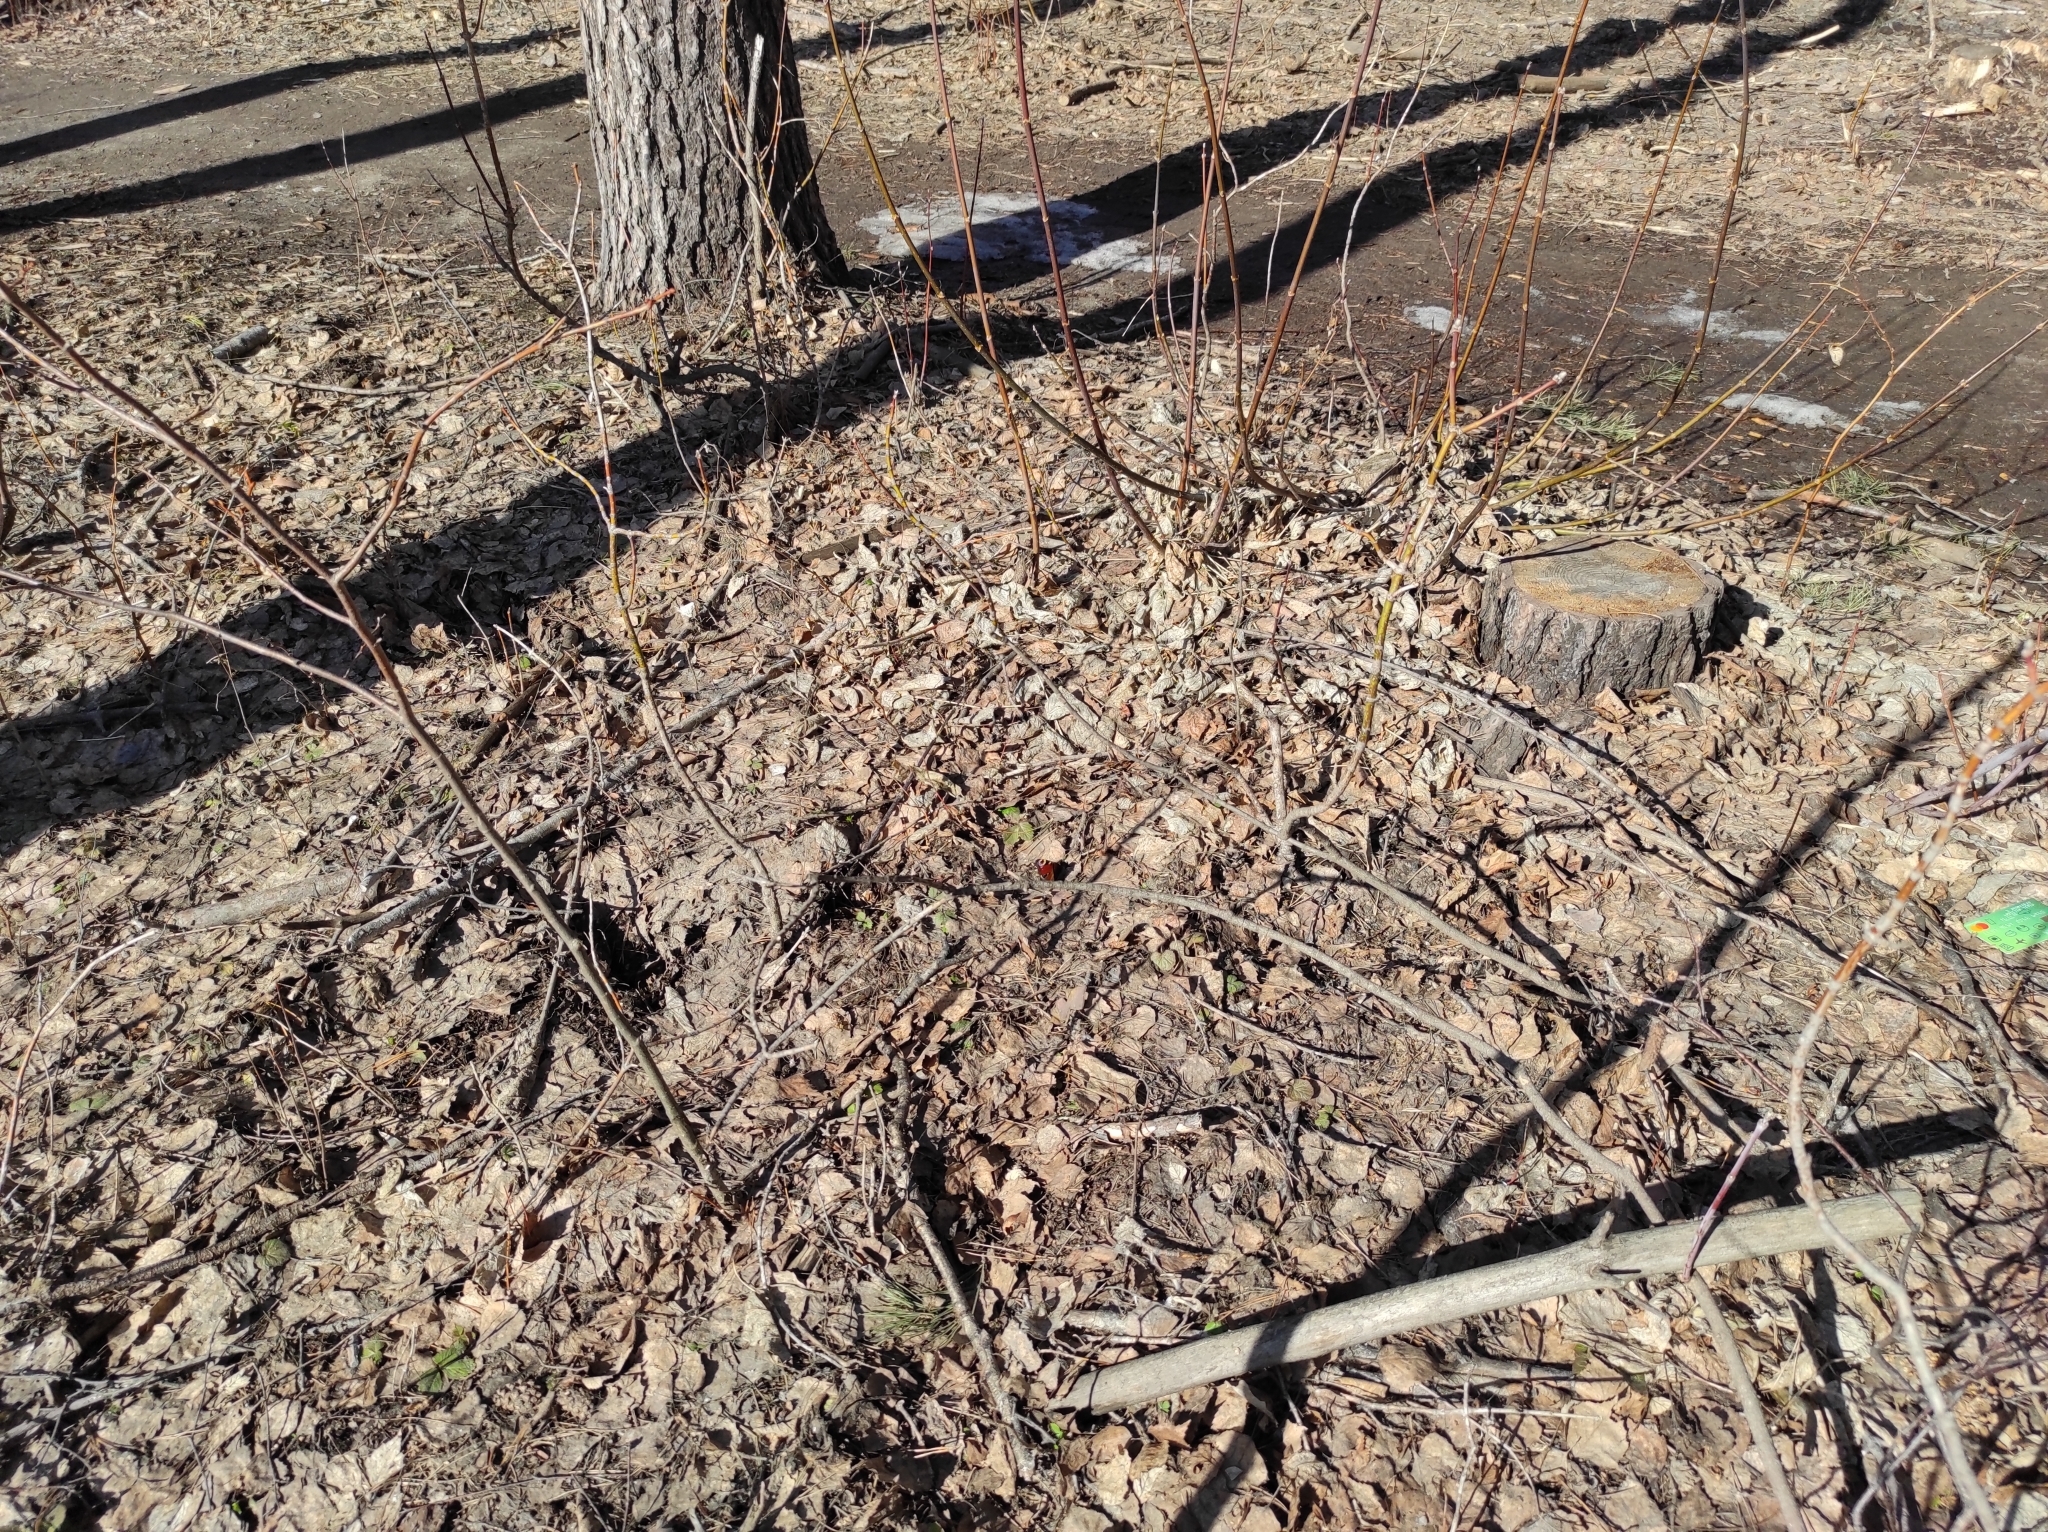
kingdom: Animalia
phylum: Arthropoda
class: Insecta
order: Lepidoptera
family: Nymphalidae
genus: Aglais
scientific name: Aglais io
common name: Peacock
